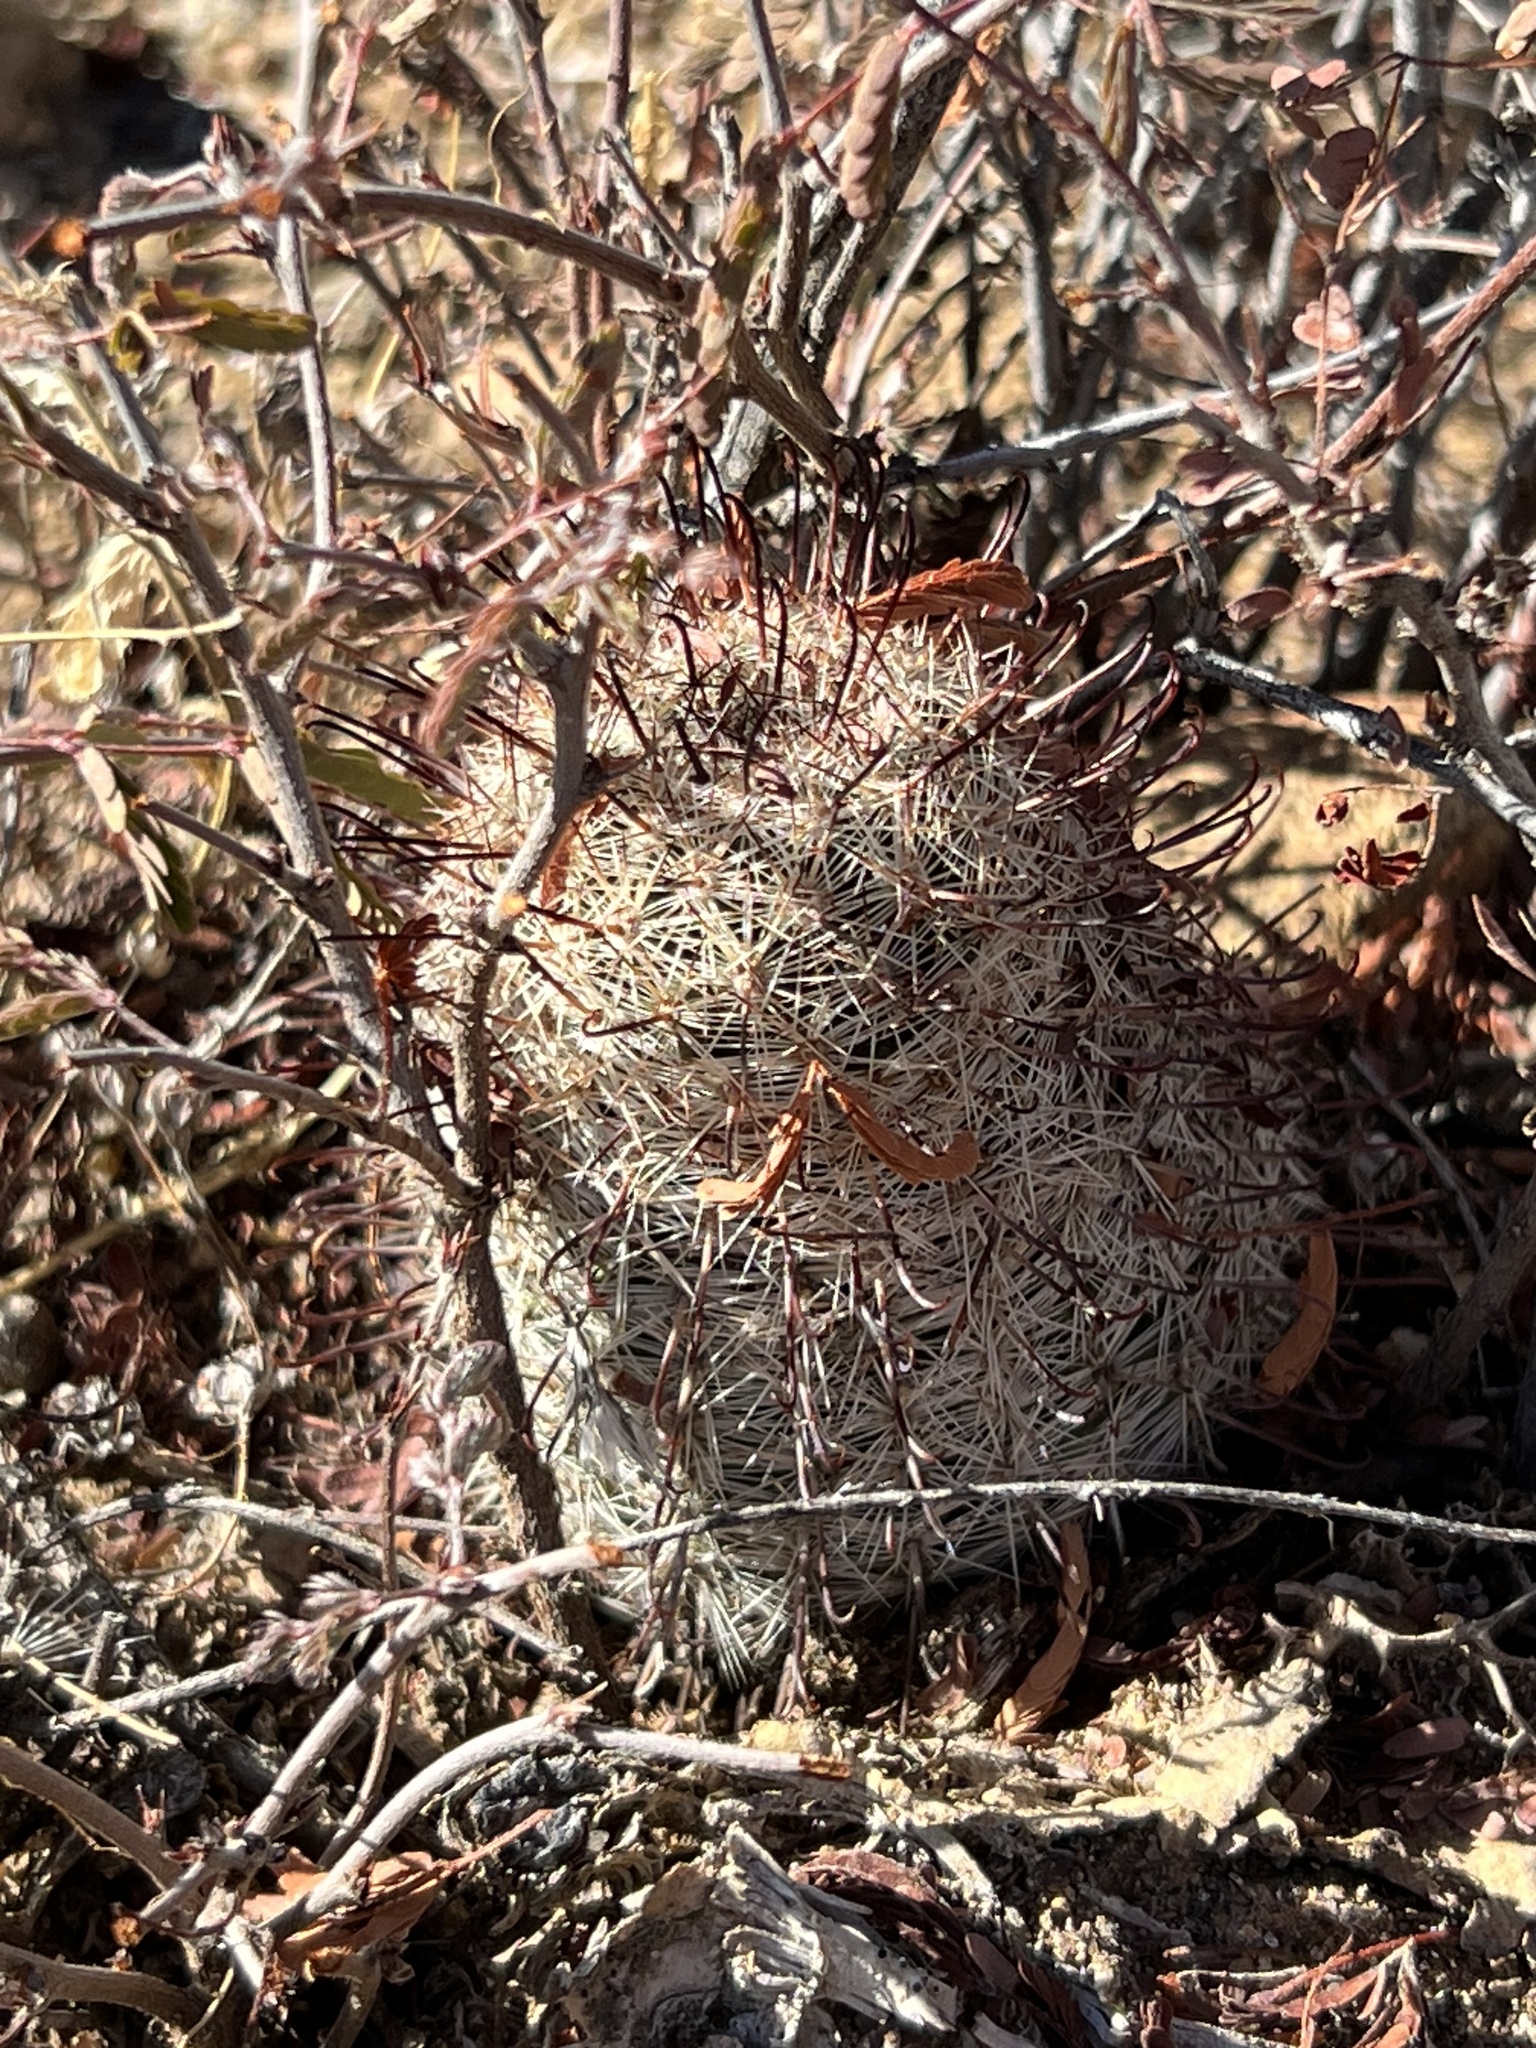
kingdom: Plantae
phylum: Tracheophyta
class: Magnoliopsida
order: Caryophyllales
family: Cactaceae
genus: Cochemiea
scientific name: Cochemiea grahamii
